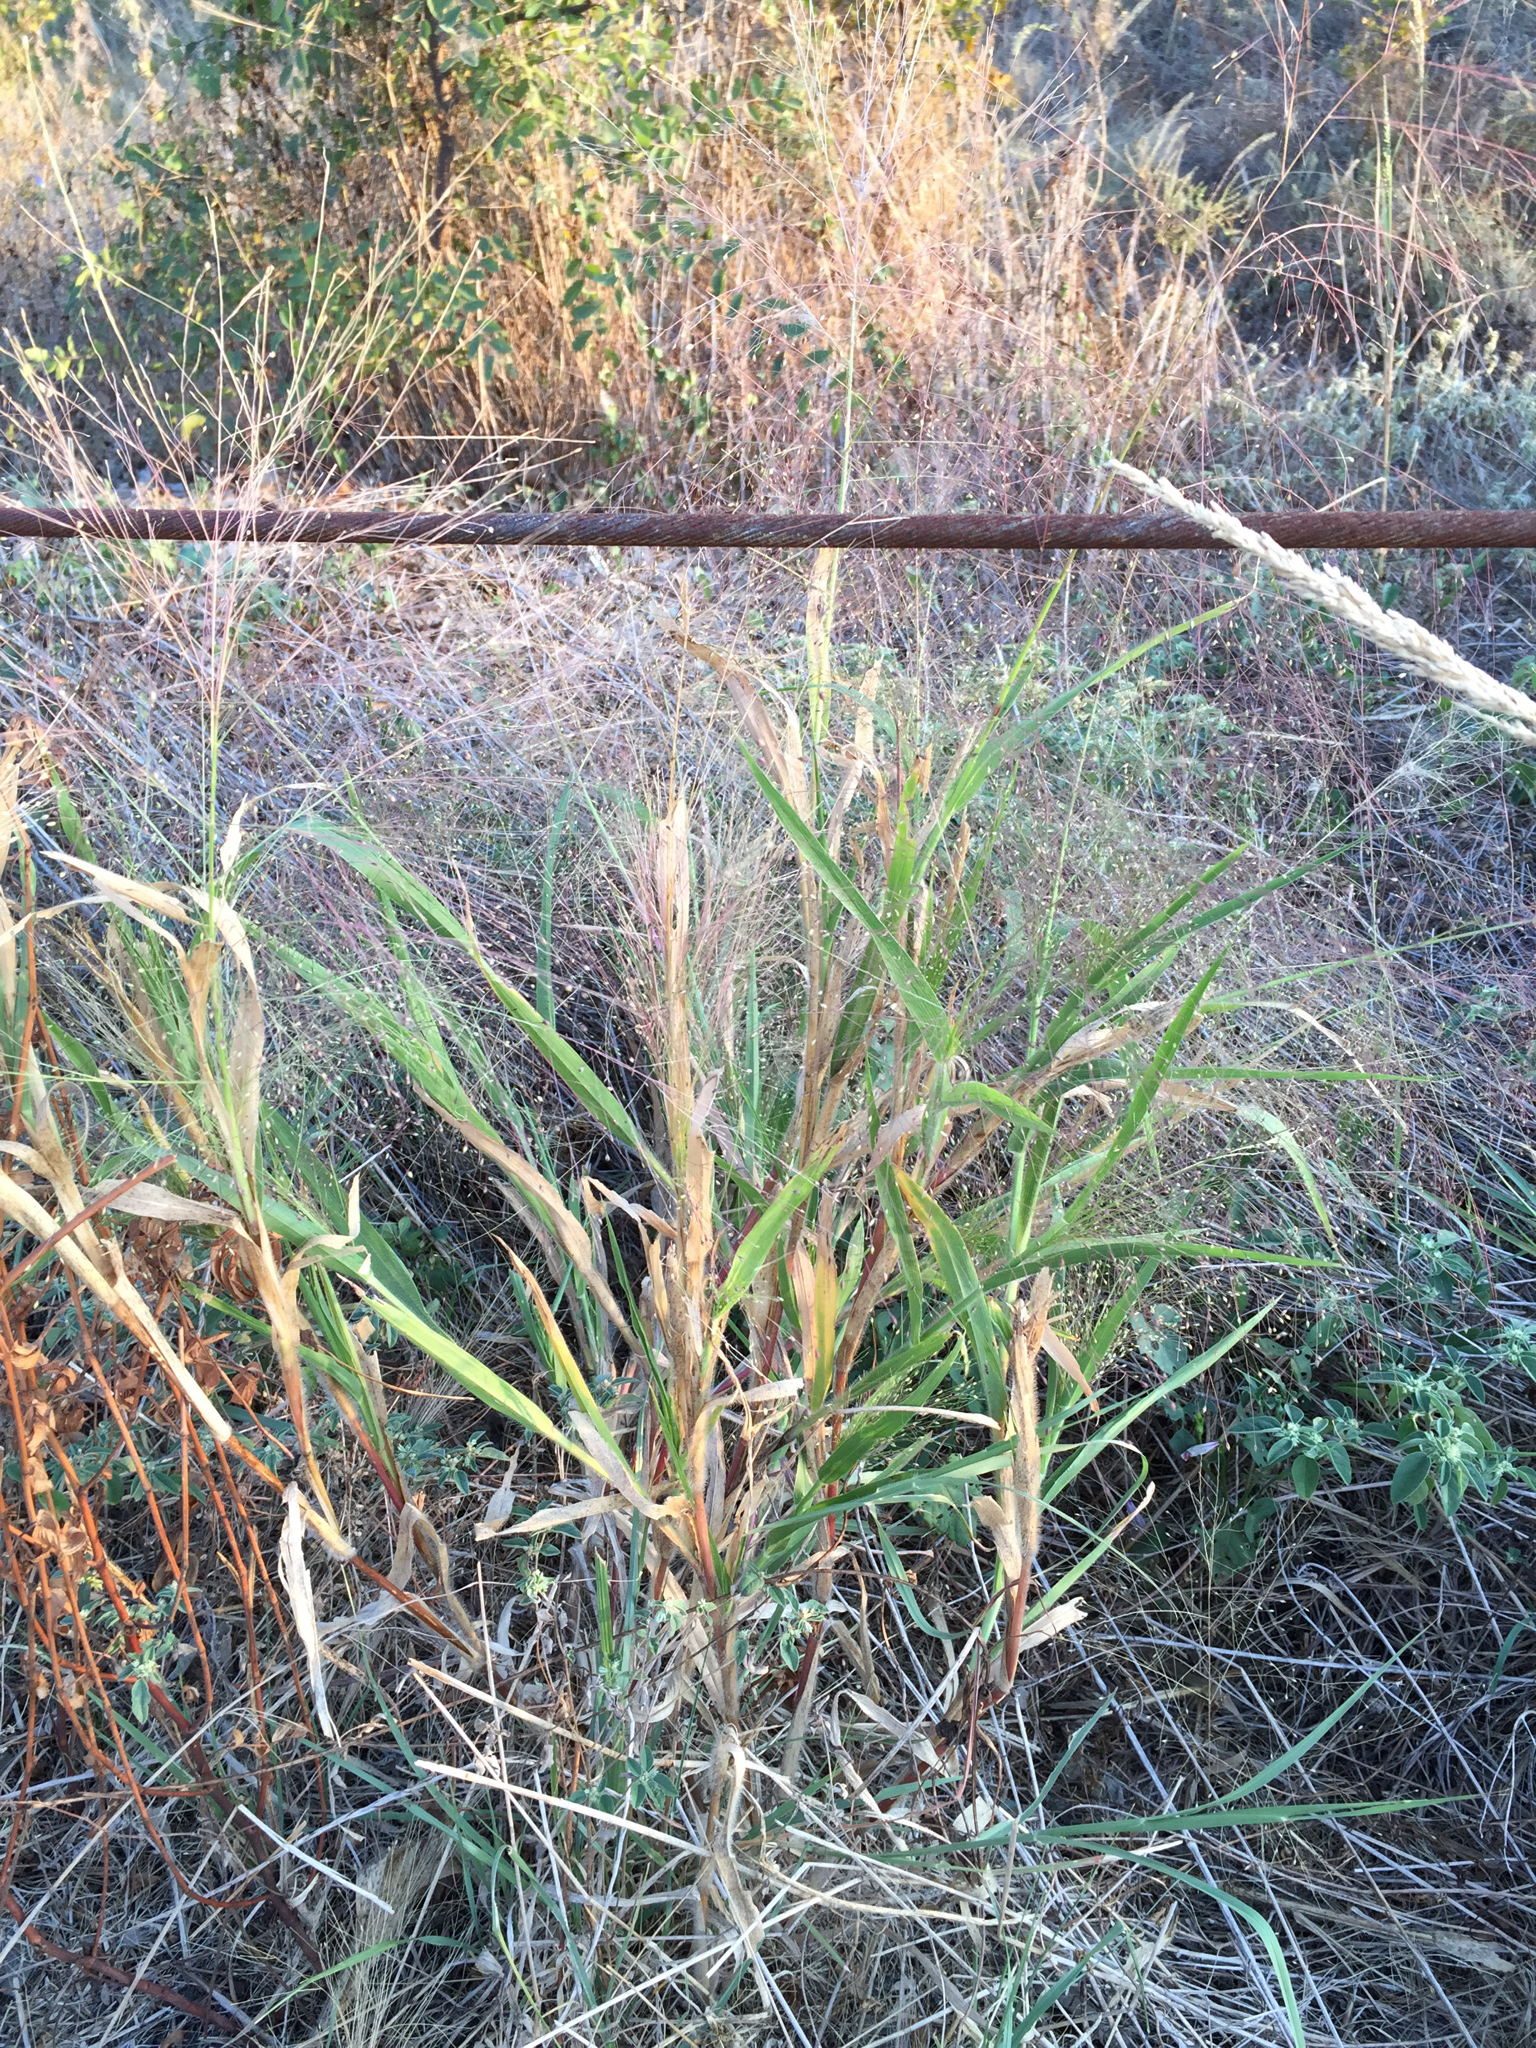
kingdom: Plantae
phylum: Tracheophyta
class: Liliopsida
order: Poales
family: Poaceae
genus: Panicum
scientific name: Panicum capillare
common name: Witch-grass
